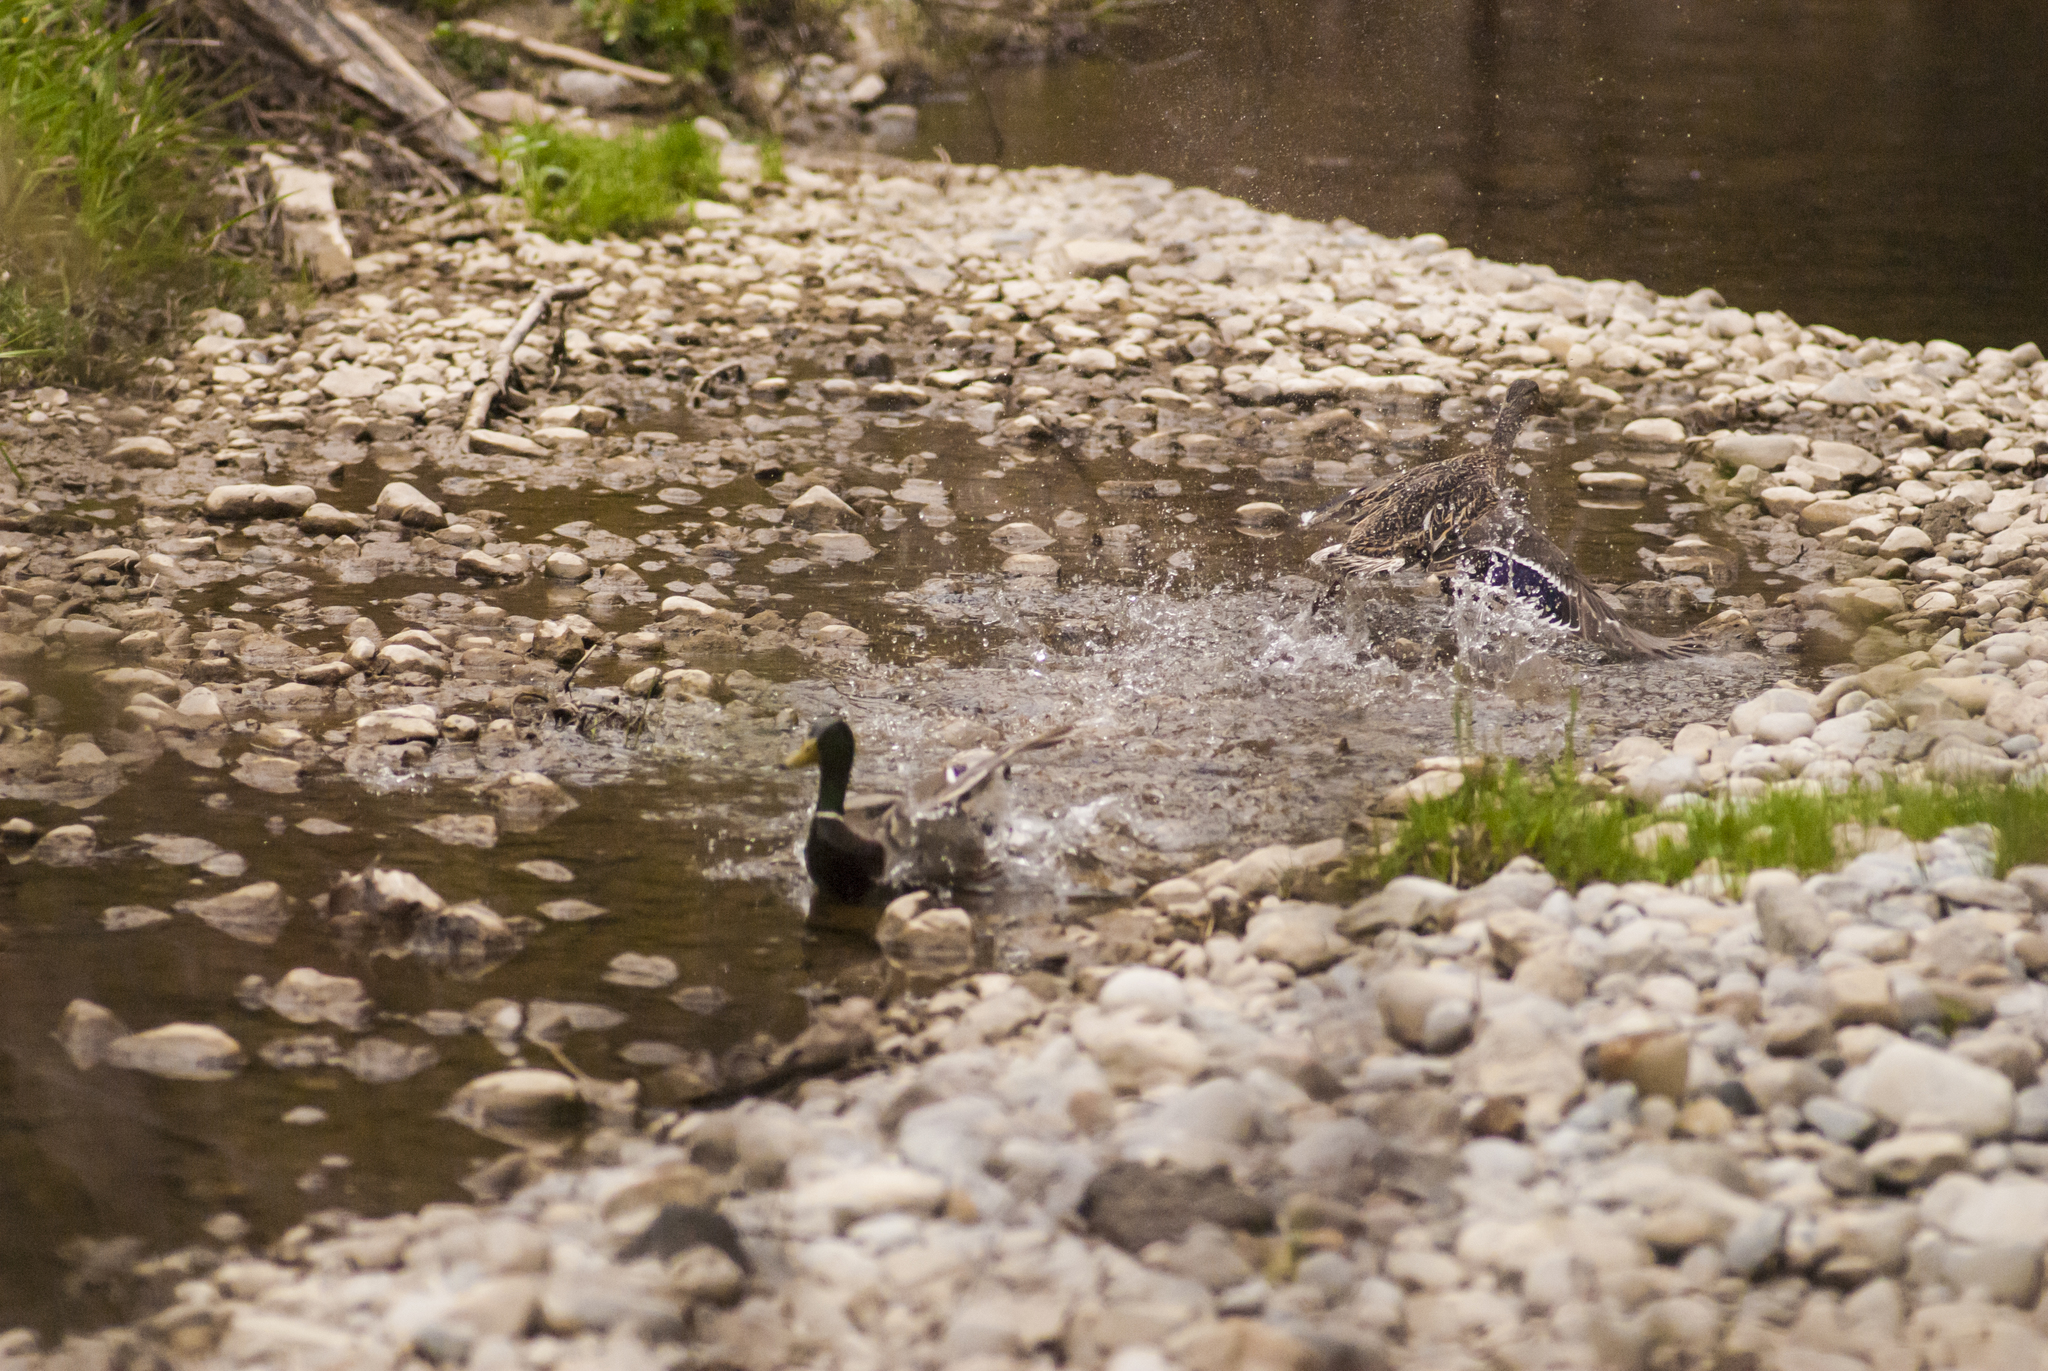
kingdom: Animalia
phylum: Chordata
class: Aves
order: Anseriformes
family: Anatidae
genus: Anas
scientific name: Anas platyrhynchos
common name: Mallard
